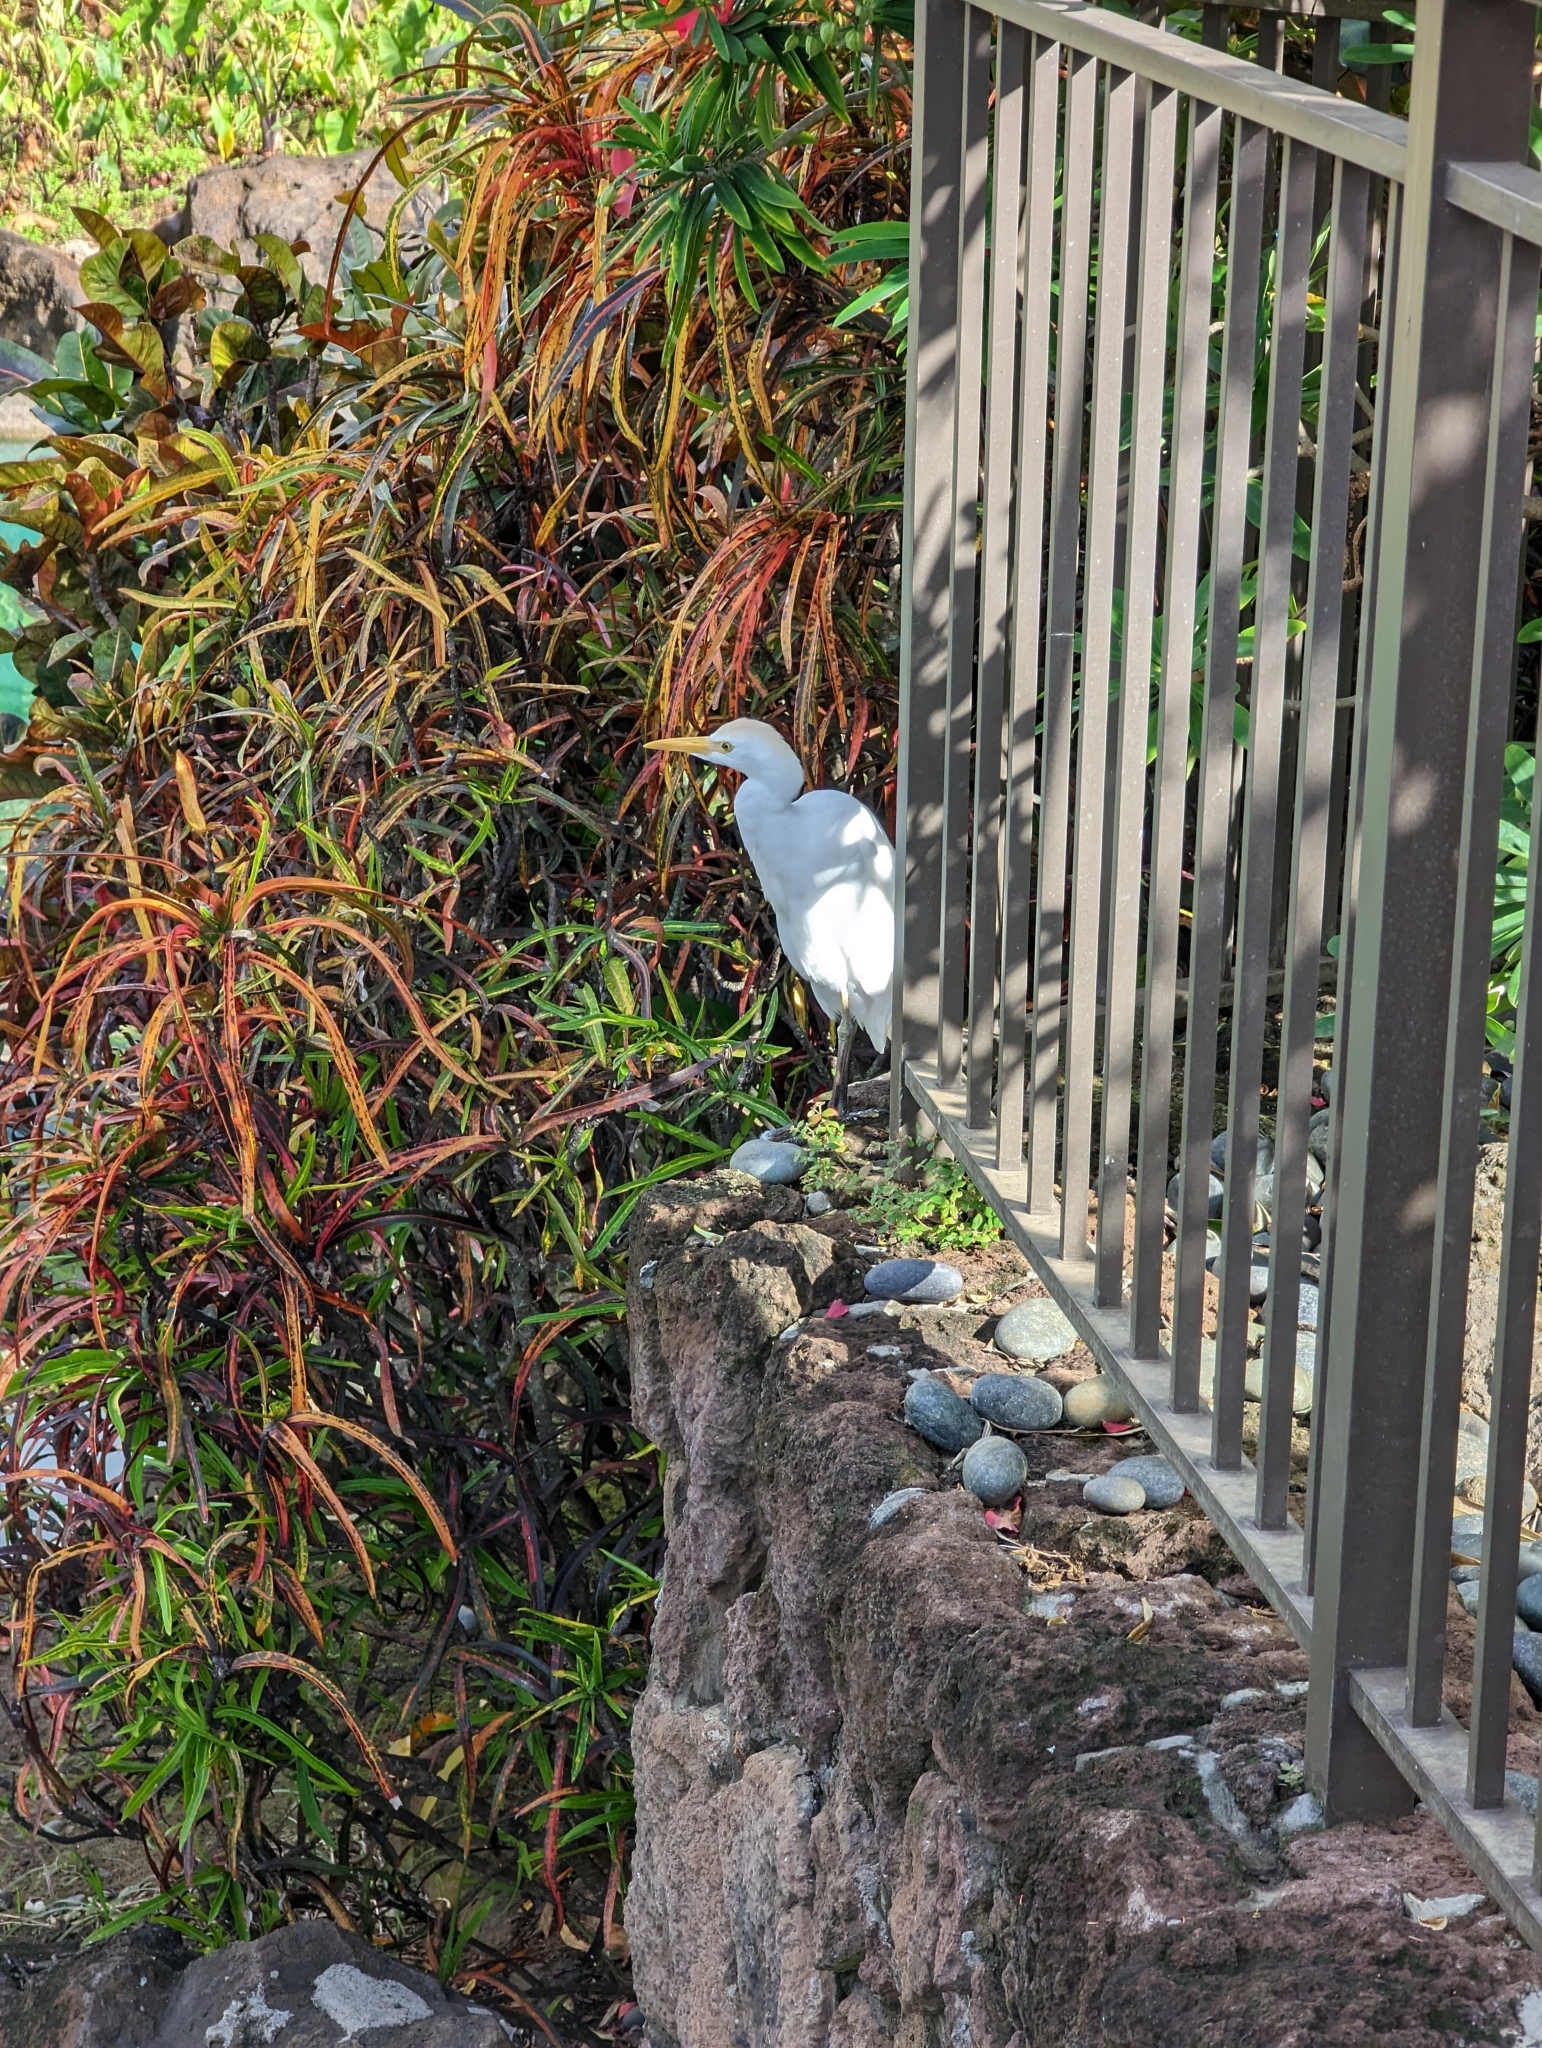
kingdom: Animalia
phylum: Chordata
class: Aves
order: Pelecaniformes
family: Ardeidae
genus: Bubulcus
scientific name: Bubulcus ibis
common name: Cattle egret
